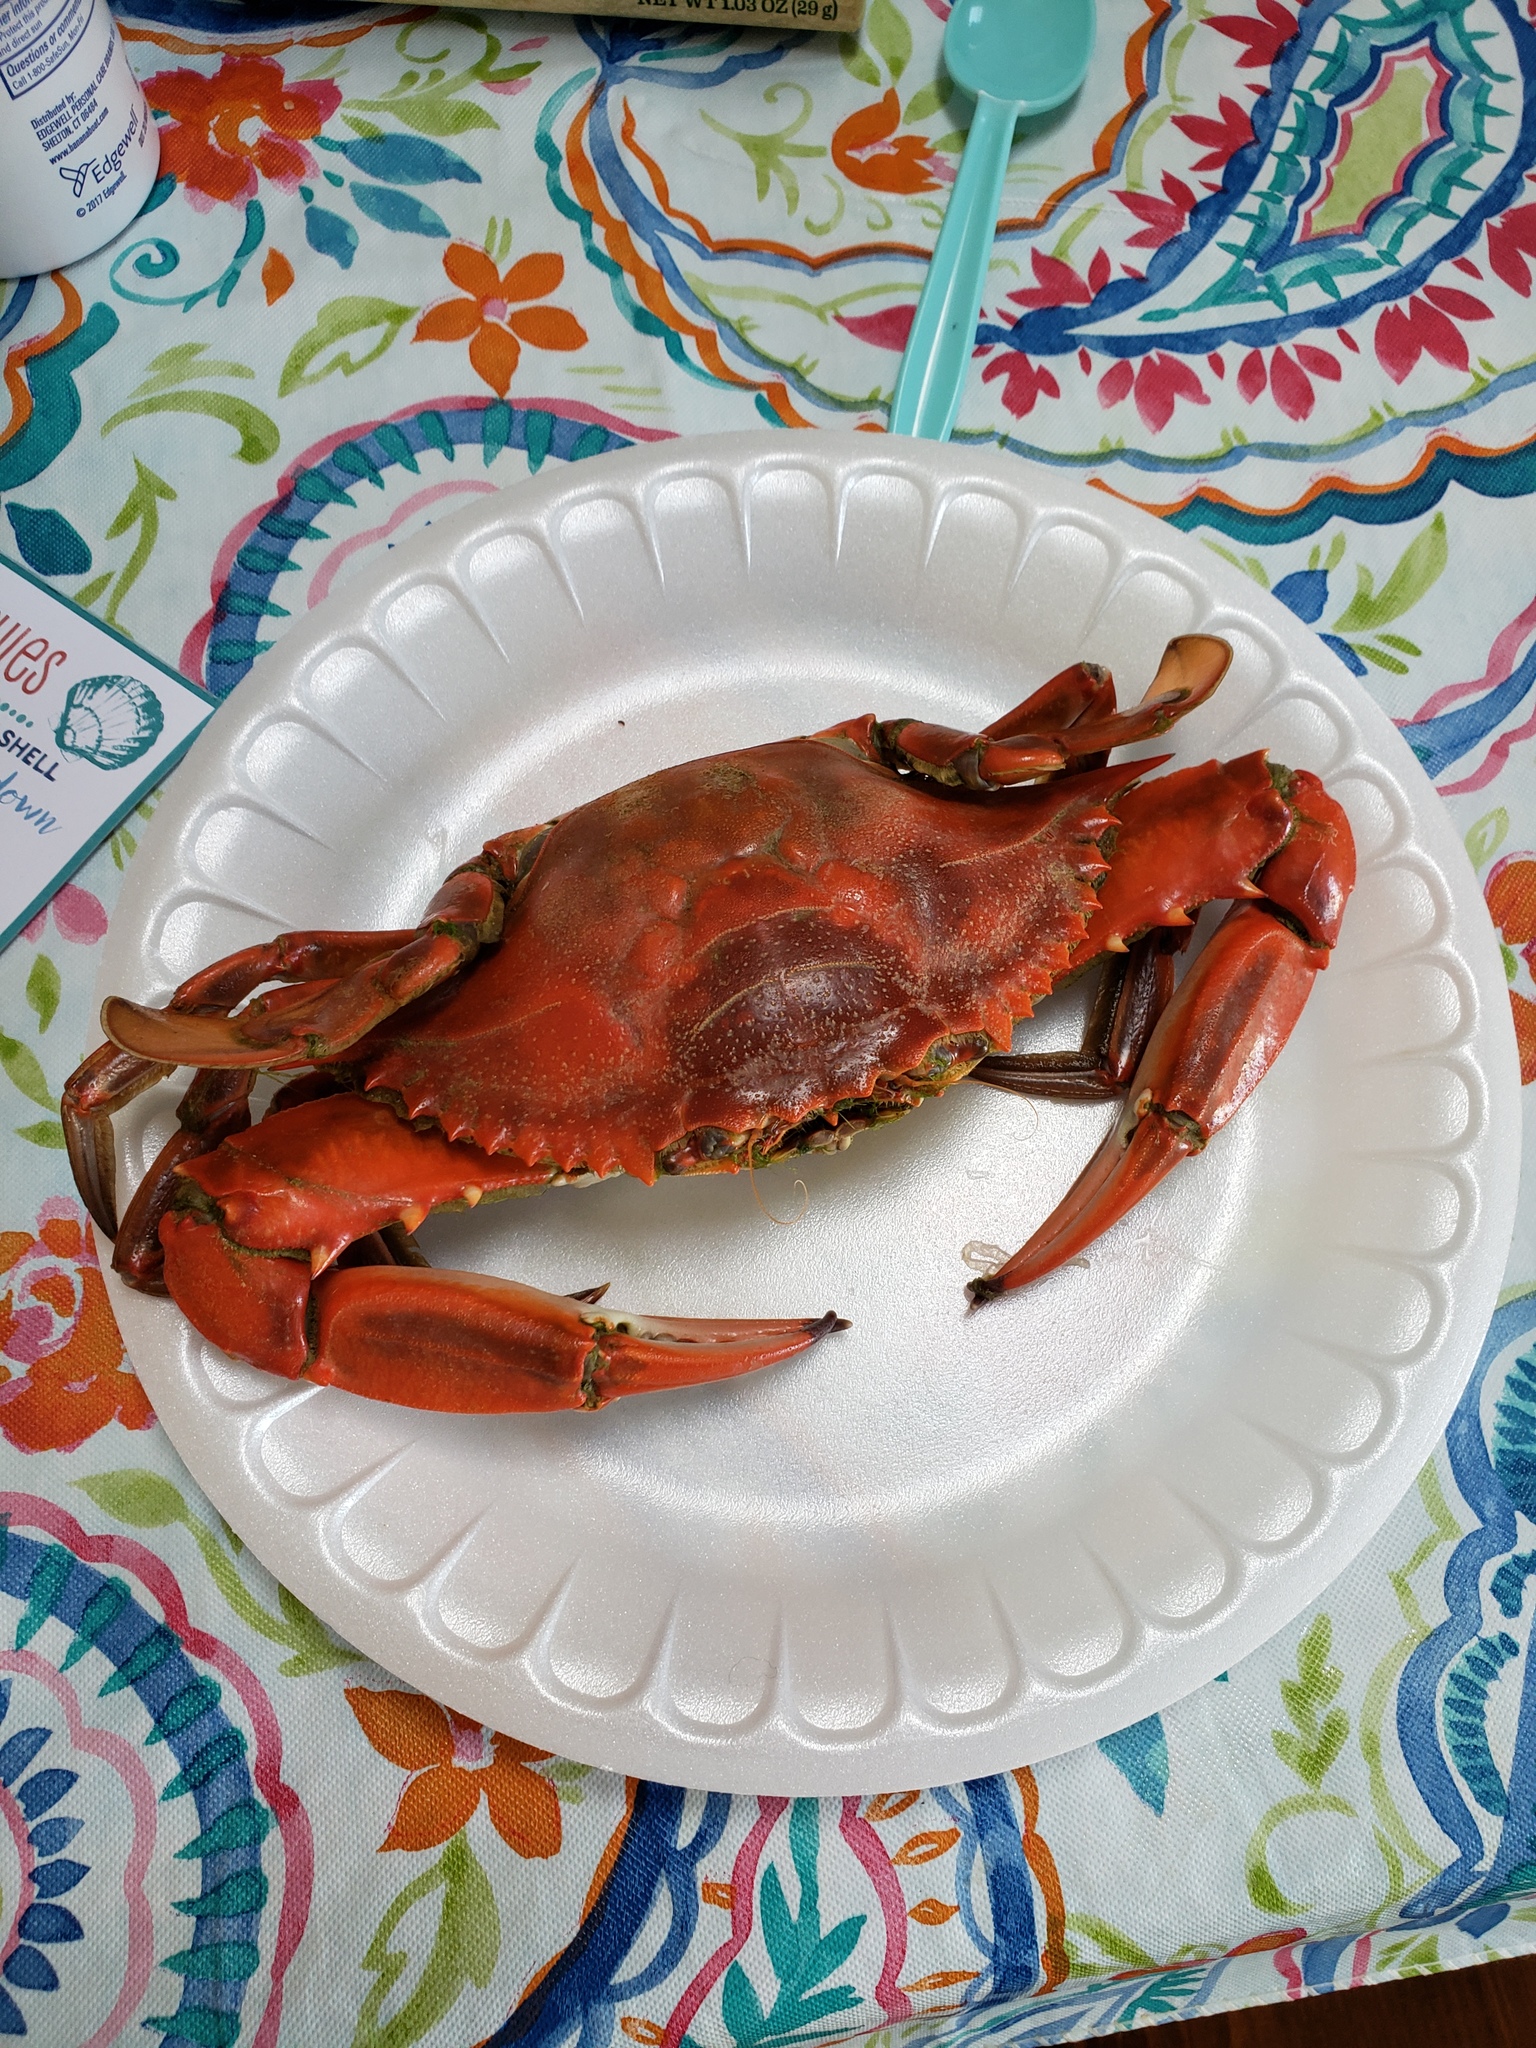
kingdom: Animalia
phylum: Arthropoda
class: Malacostraca
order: Decapoda
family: Portunidae
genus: Callinectes
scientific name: Callinectes sapidus
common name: Blue crab
